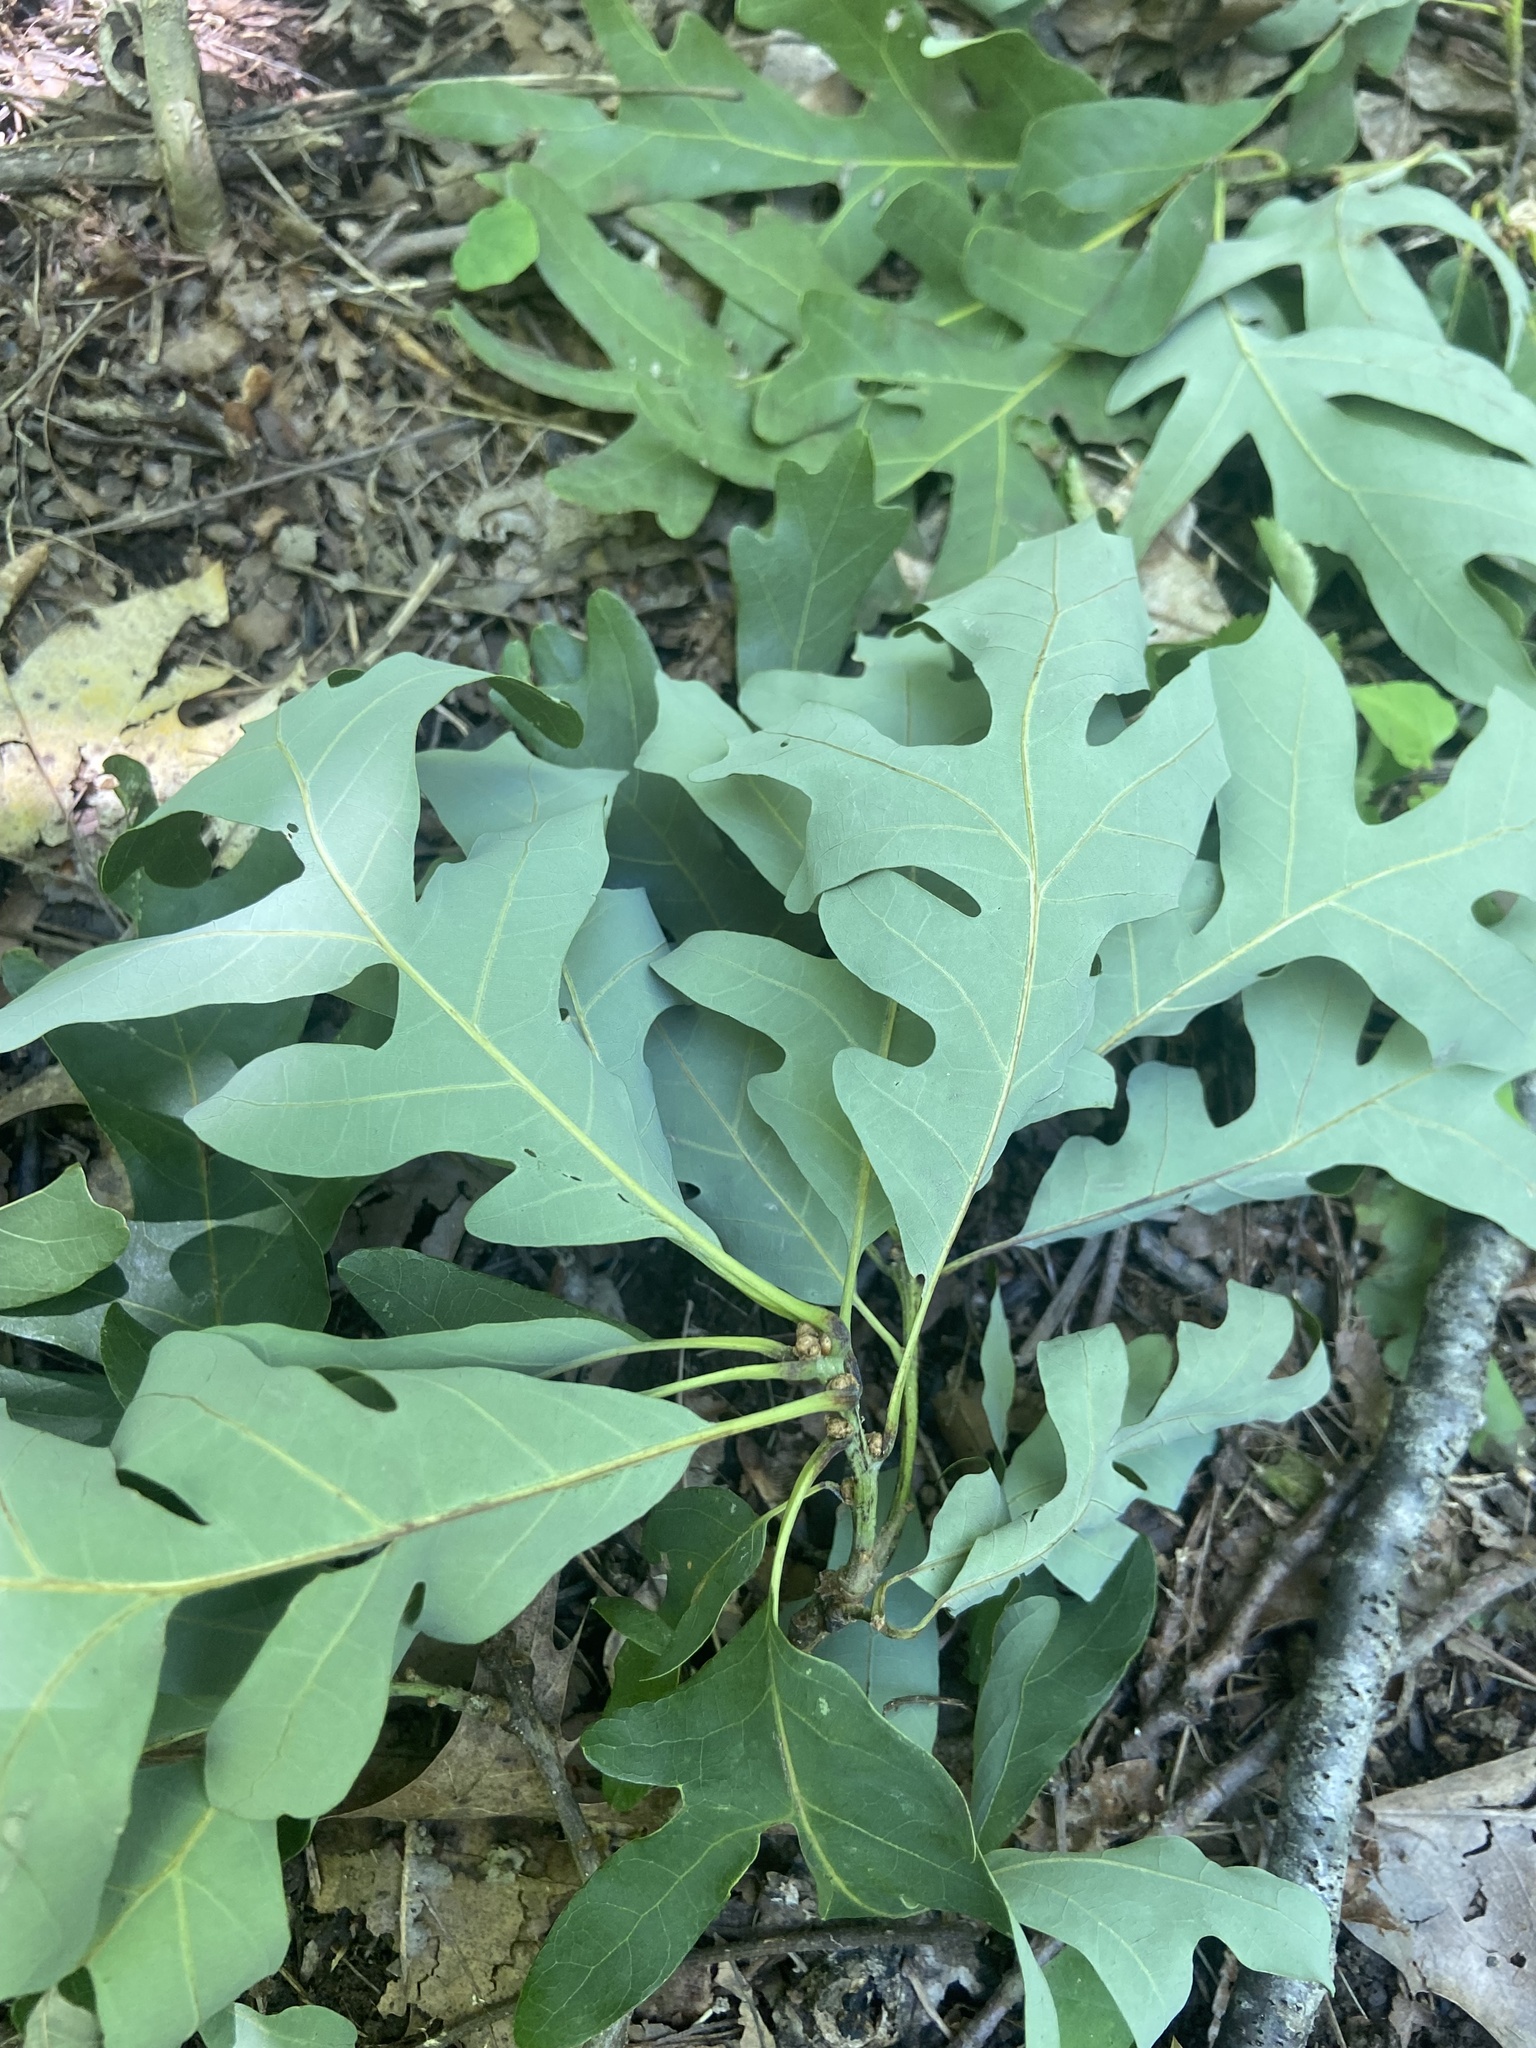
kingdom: Plantae
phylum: Tracheophyta
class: Magnoliopsida
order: Fagales
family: Fagaceae
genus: Quercus
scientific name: Quercus alba
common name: White oak
